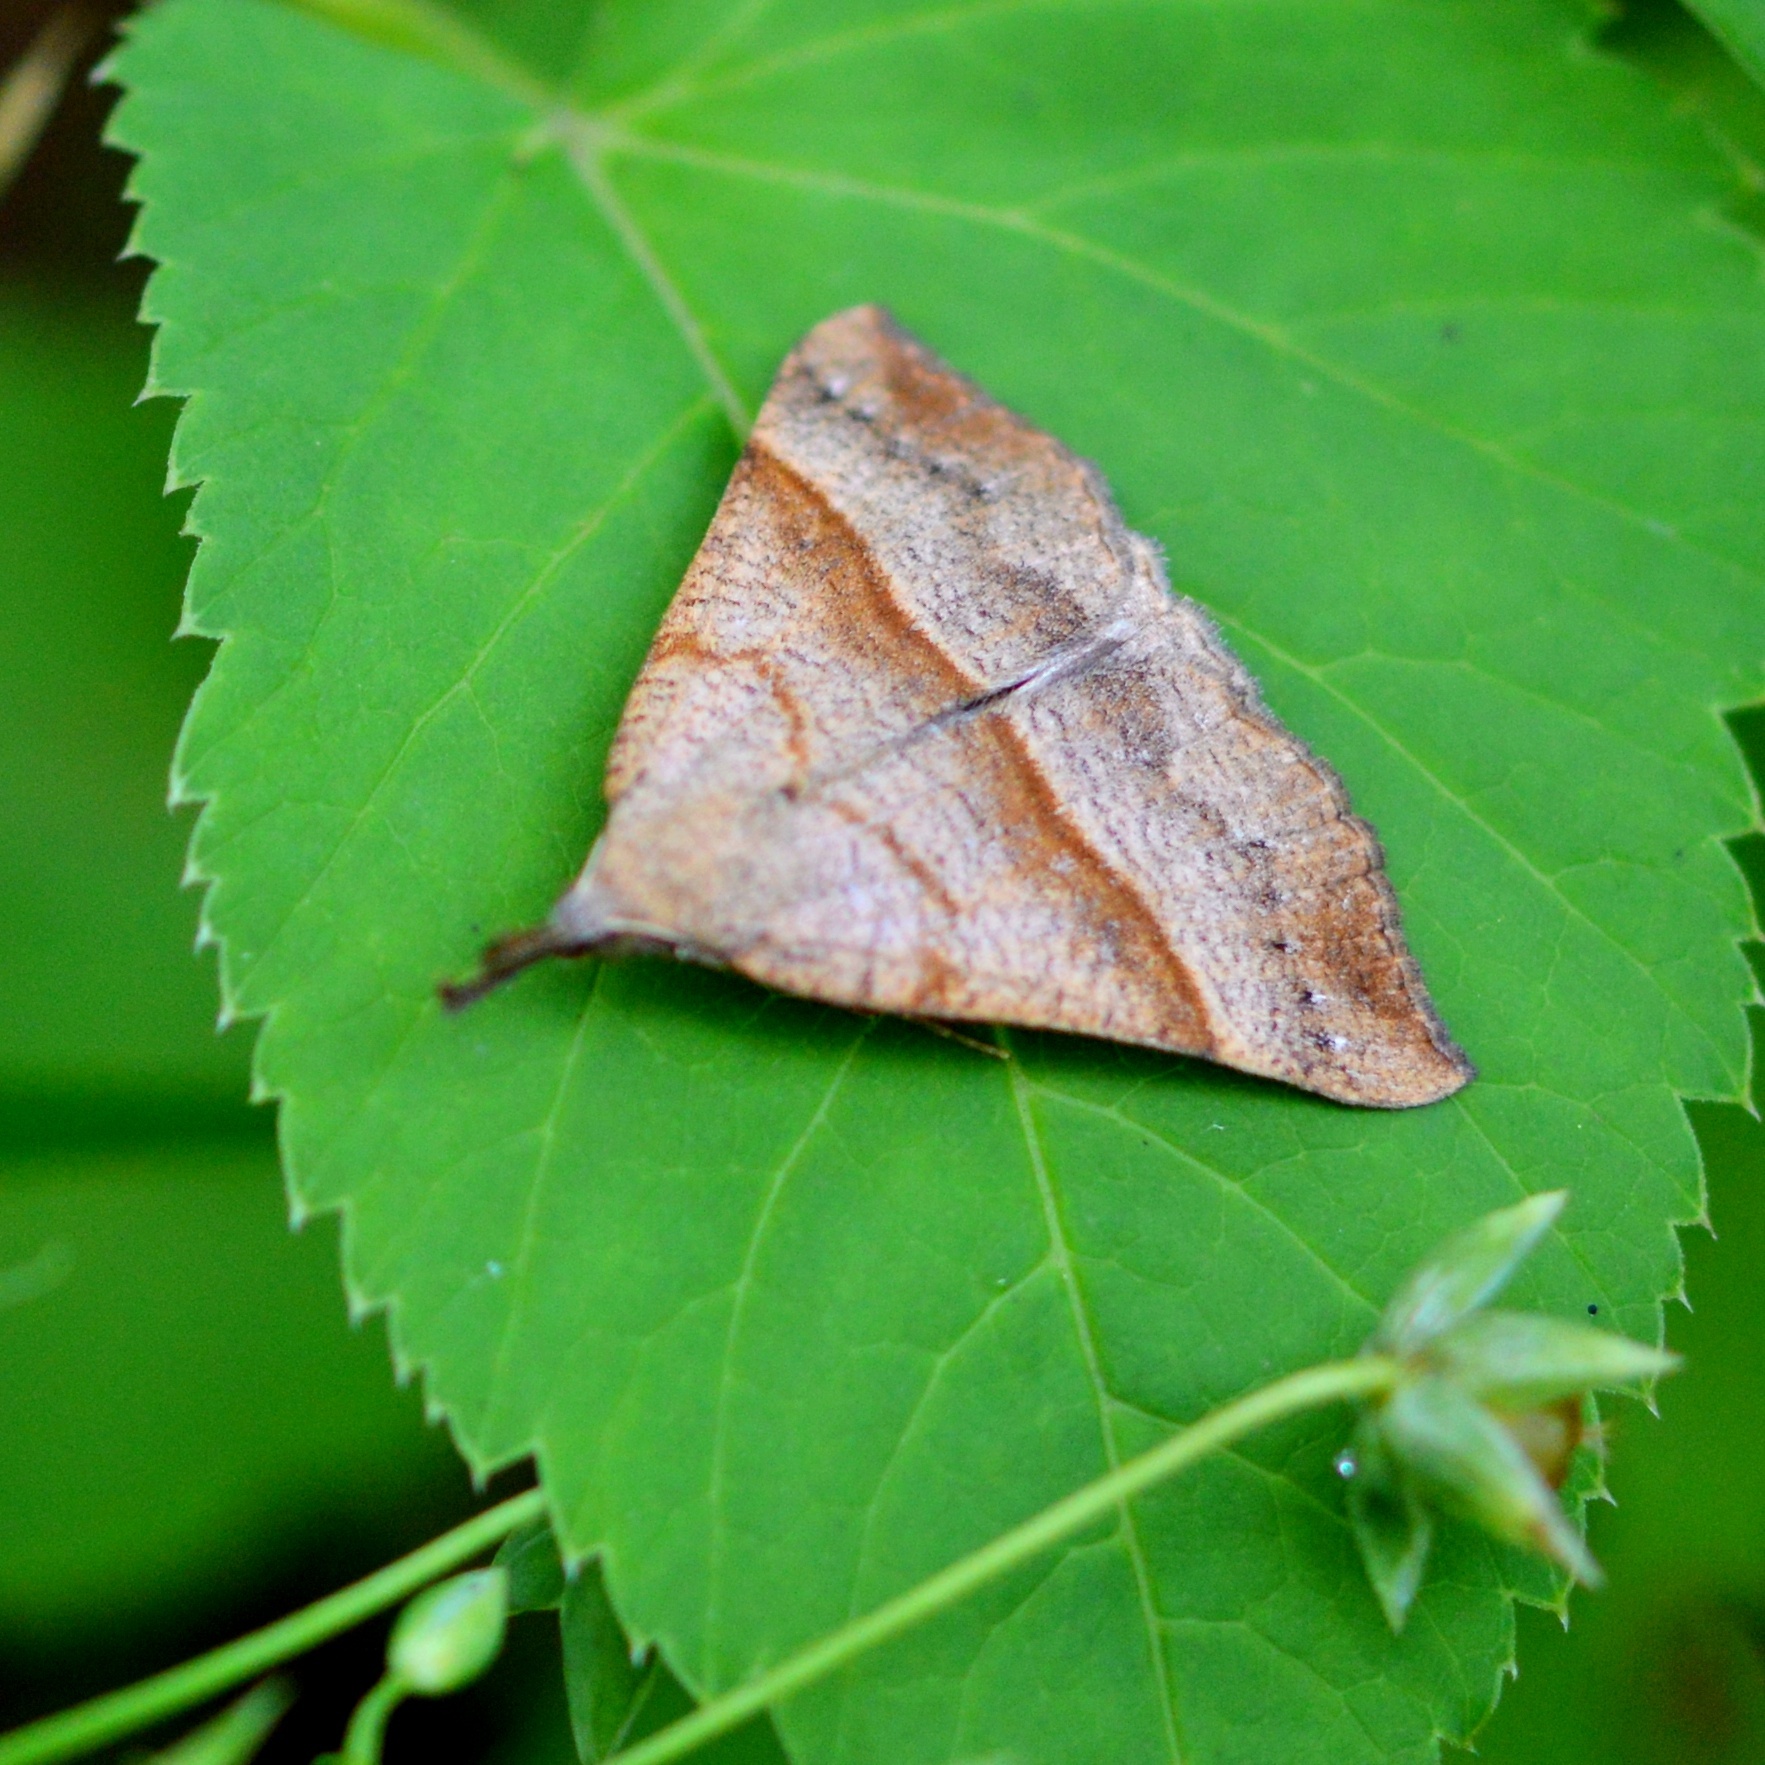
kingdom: Animalia
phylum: Arthropoda
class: Insecta
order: Lepidoptera
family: Erebidae
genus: Hypena
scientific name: Hypena proboscidalis
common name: Snout
